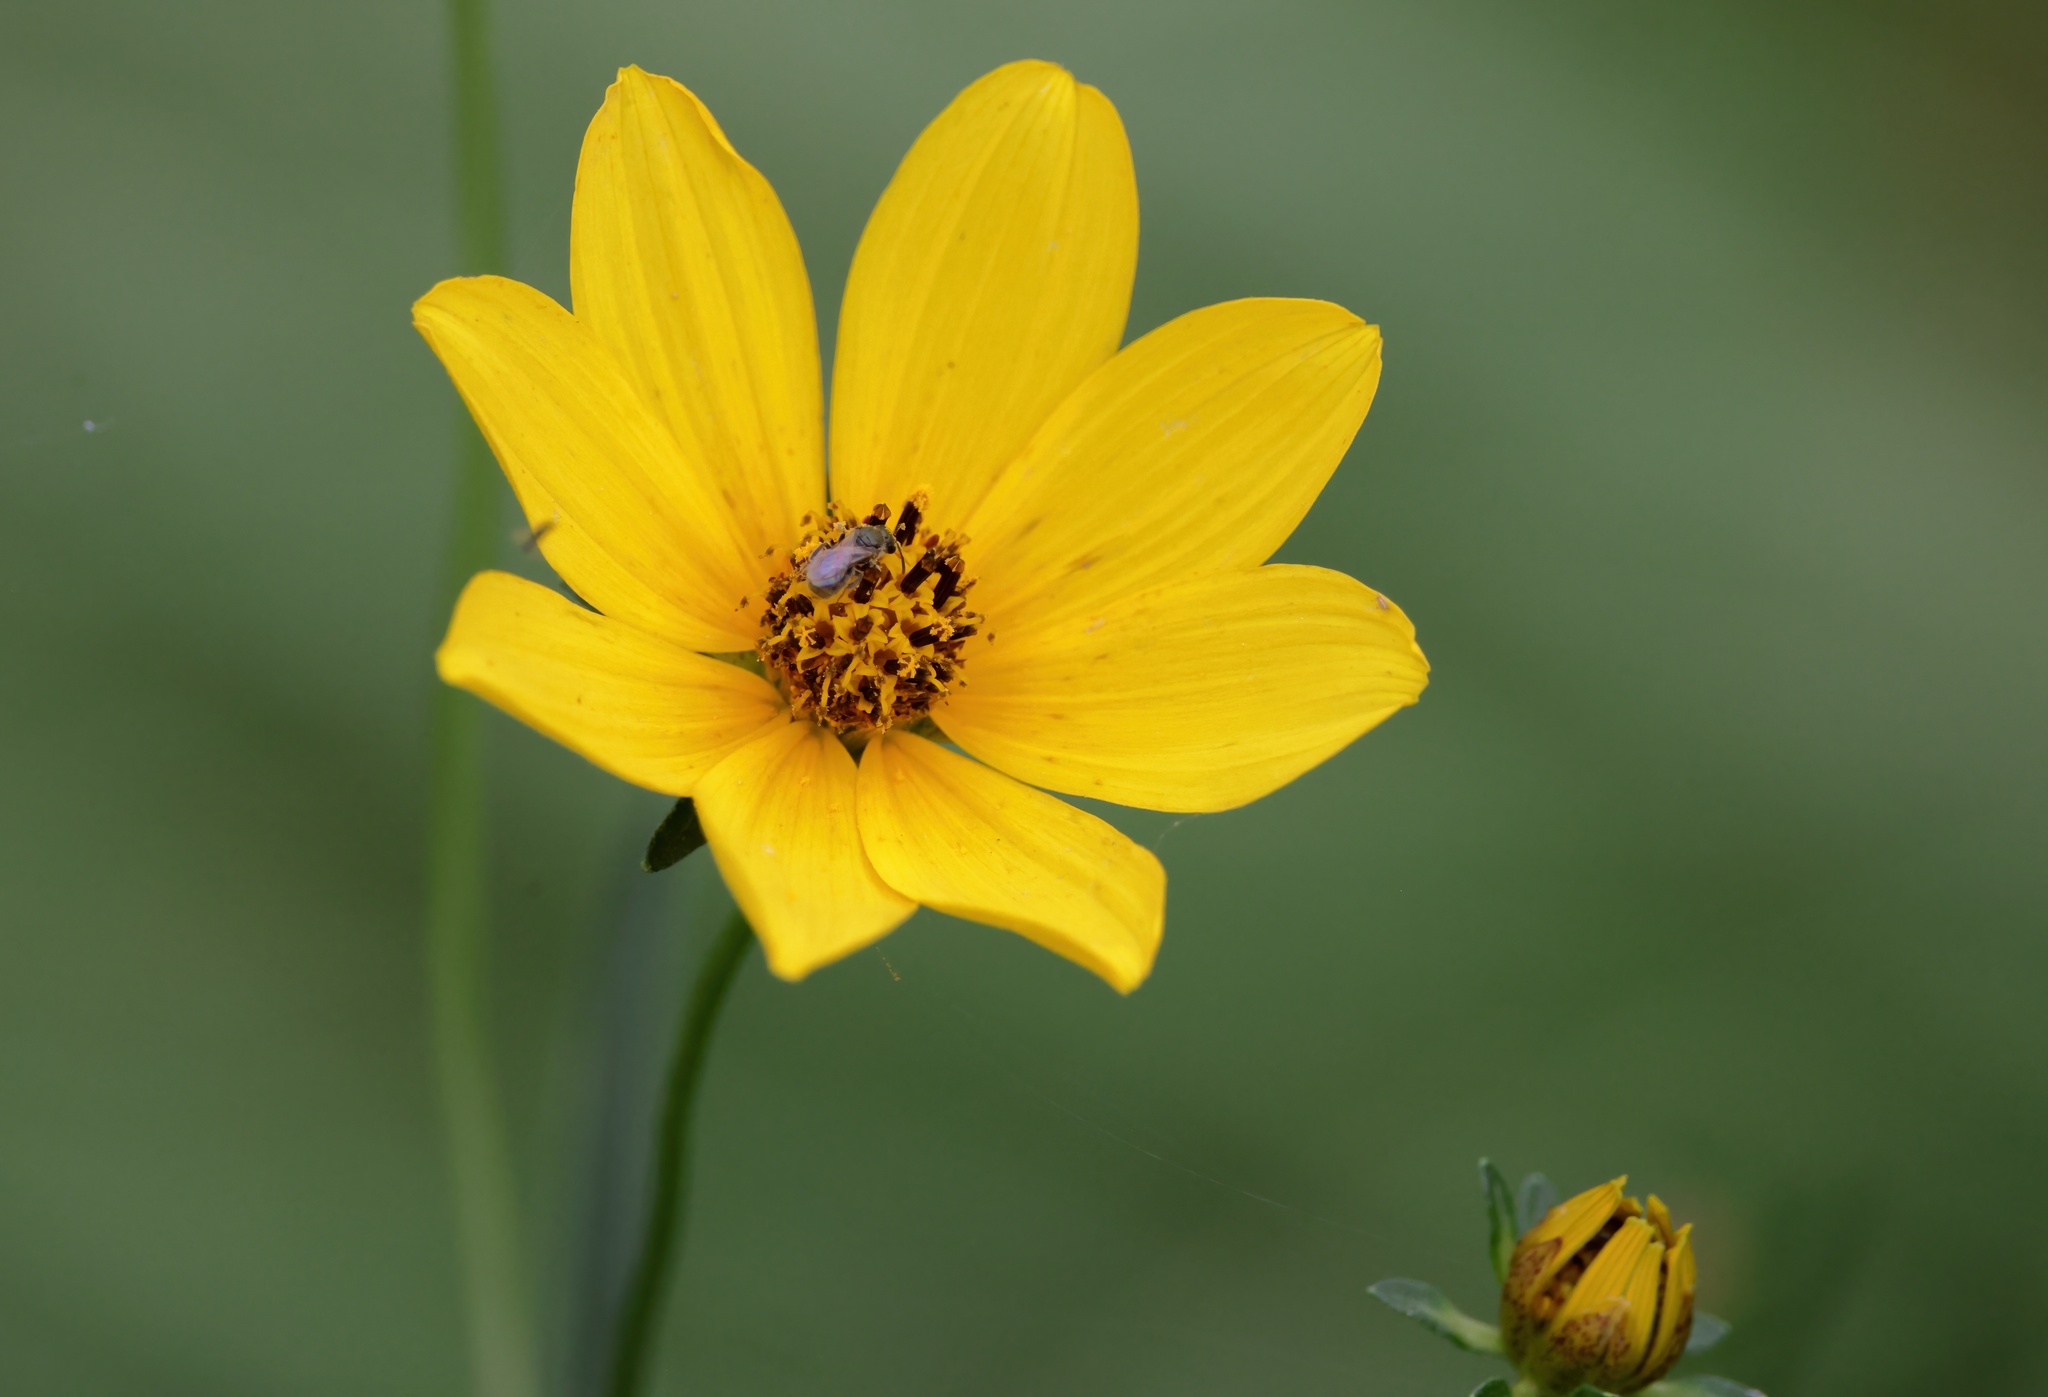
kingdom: Plantae
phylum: Tracheophyta
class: Magnoliopsida
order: Asterales
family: Asteraceae
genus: Bidens
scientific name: Bidens mitis
